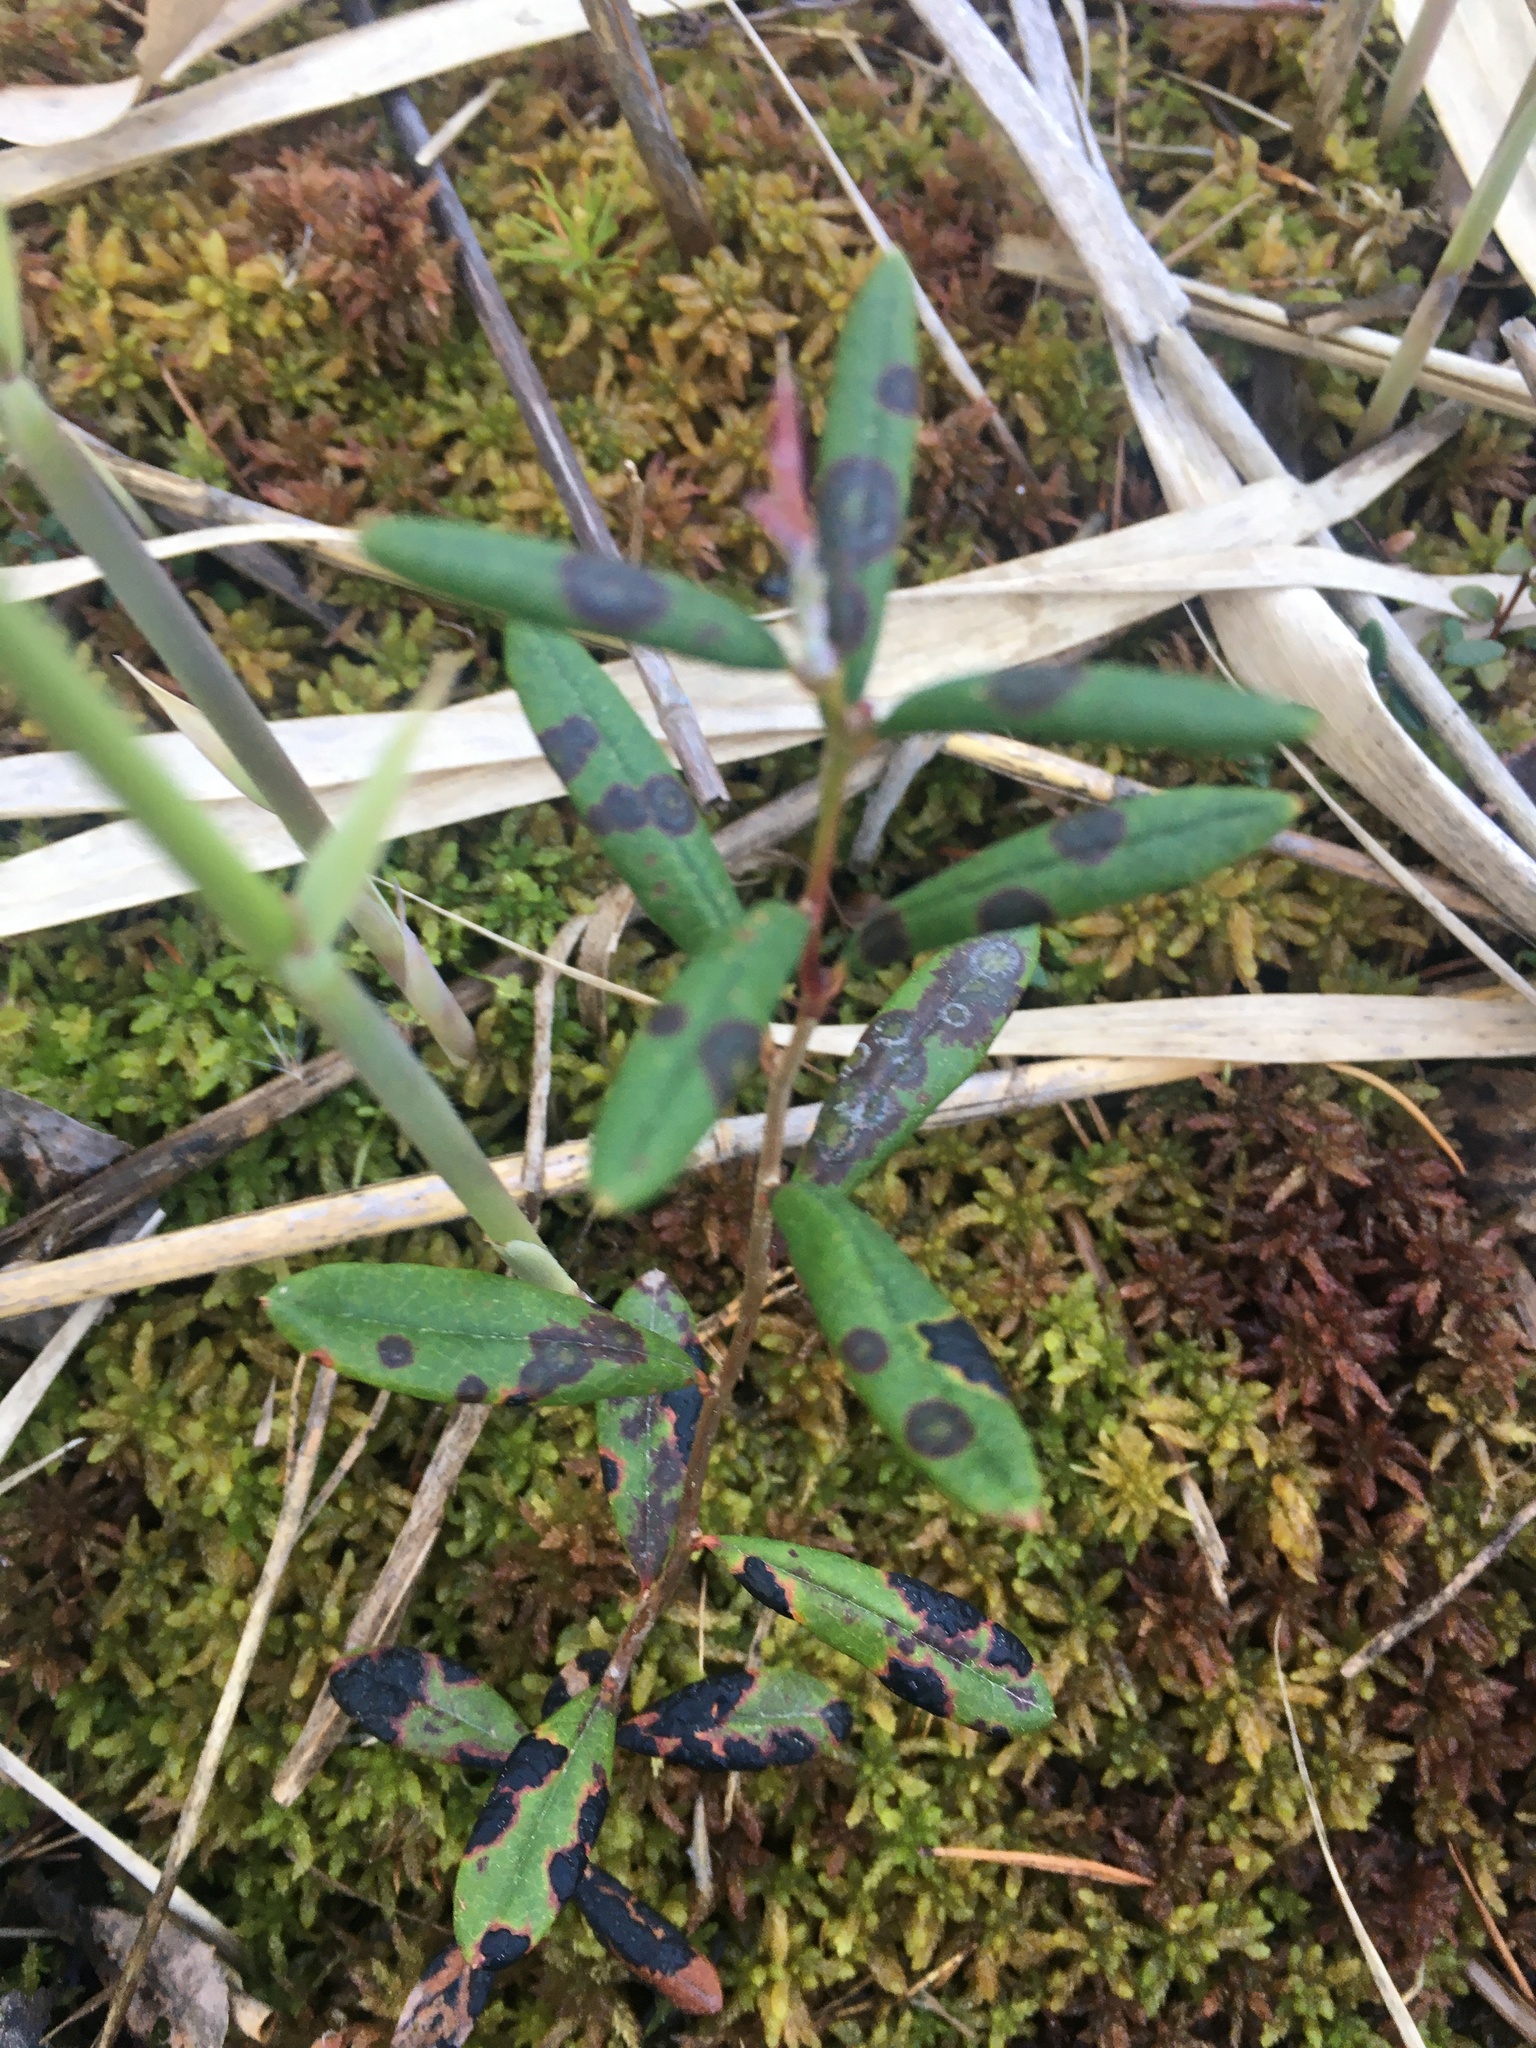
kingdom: Plantae
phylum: Tracheophyta
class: Magnoliopsida
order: Ericales
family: Ericaceae
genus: Andromeda
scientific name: Andromeda polifolia
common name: Bog-rosemary
